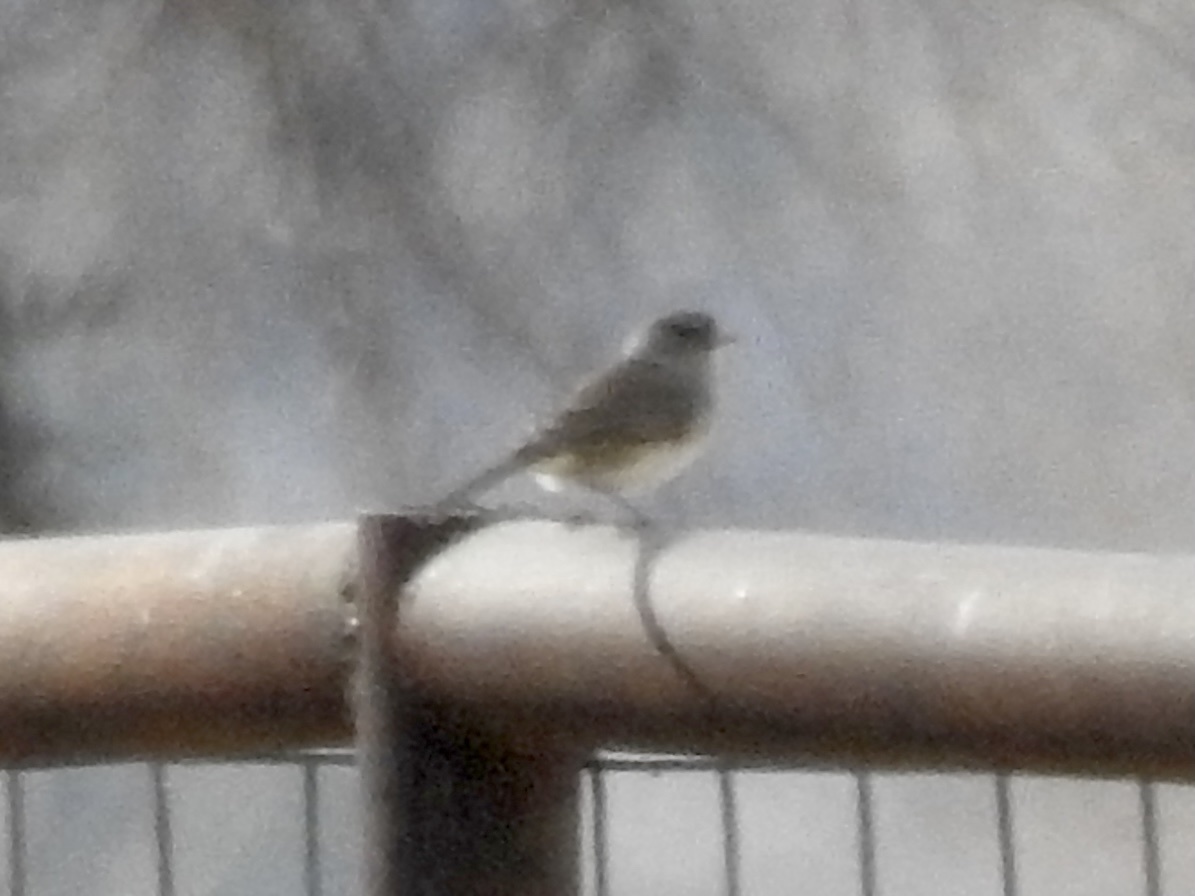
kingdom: Animalia
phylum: Chordata
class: Aves
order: Passeriformes
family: Passerellidae
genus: Junco
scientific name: Junco hyemalis
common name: Dark-eyed junco
